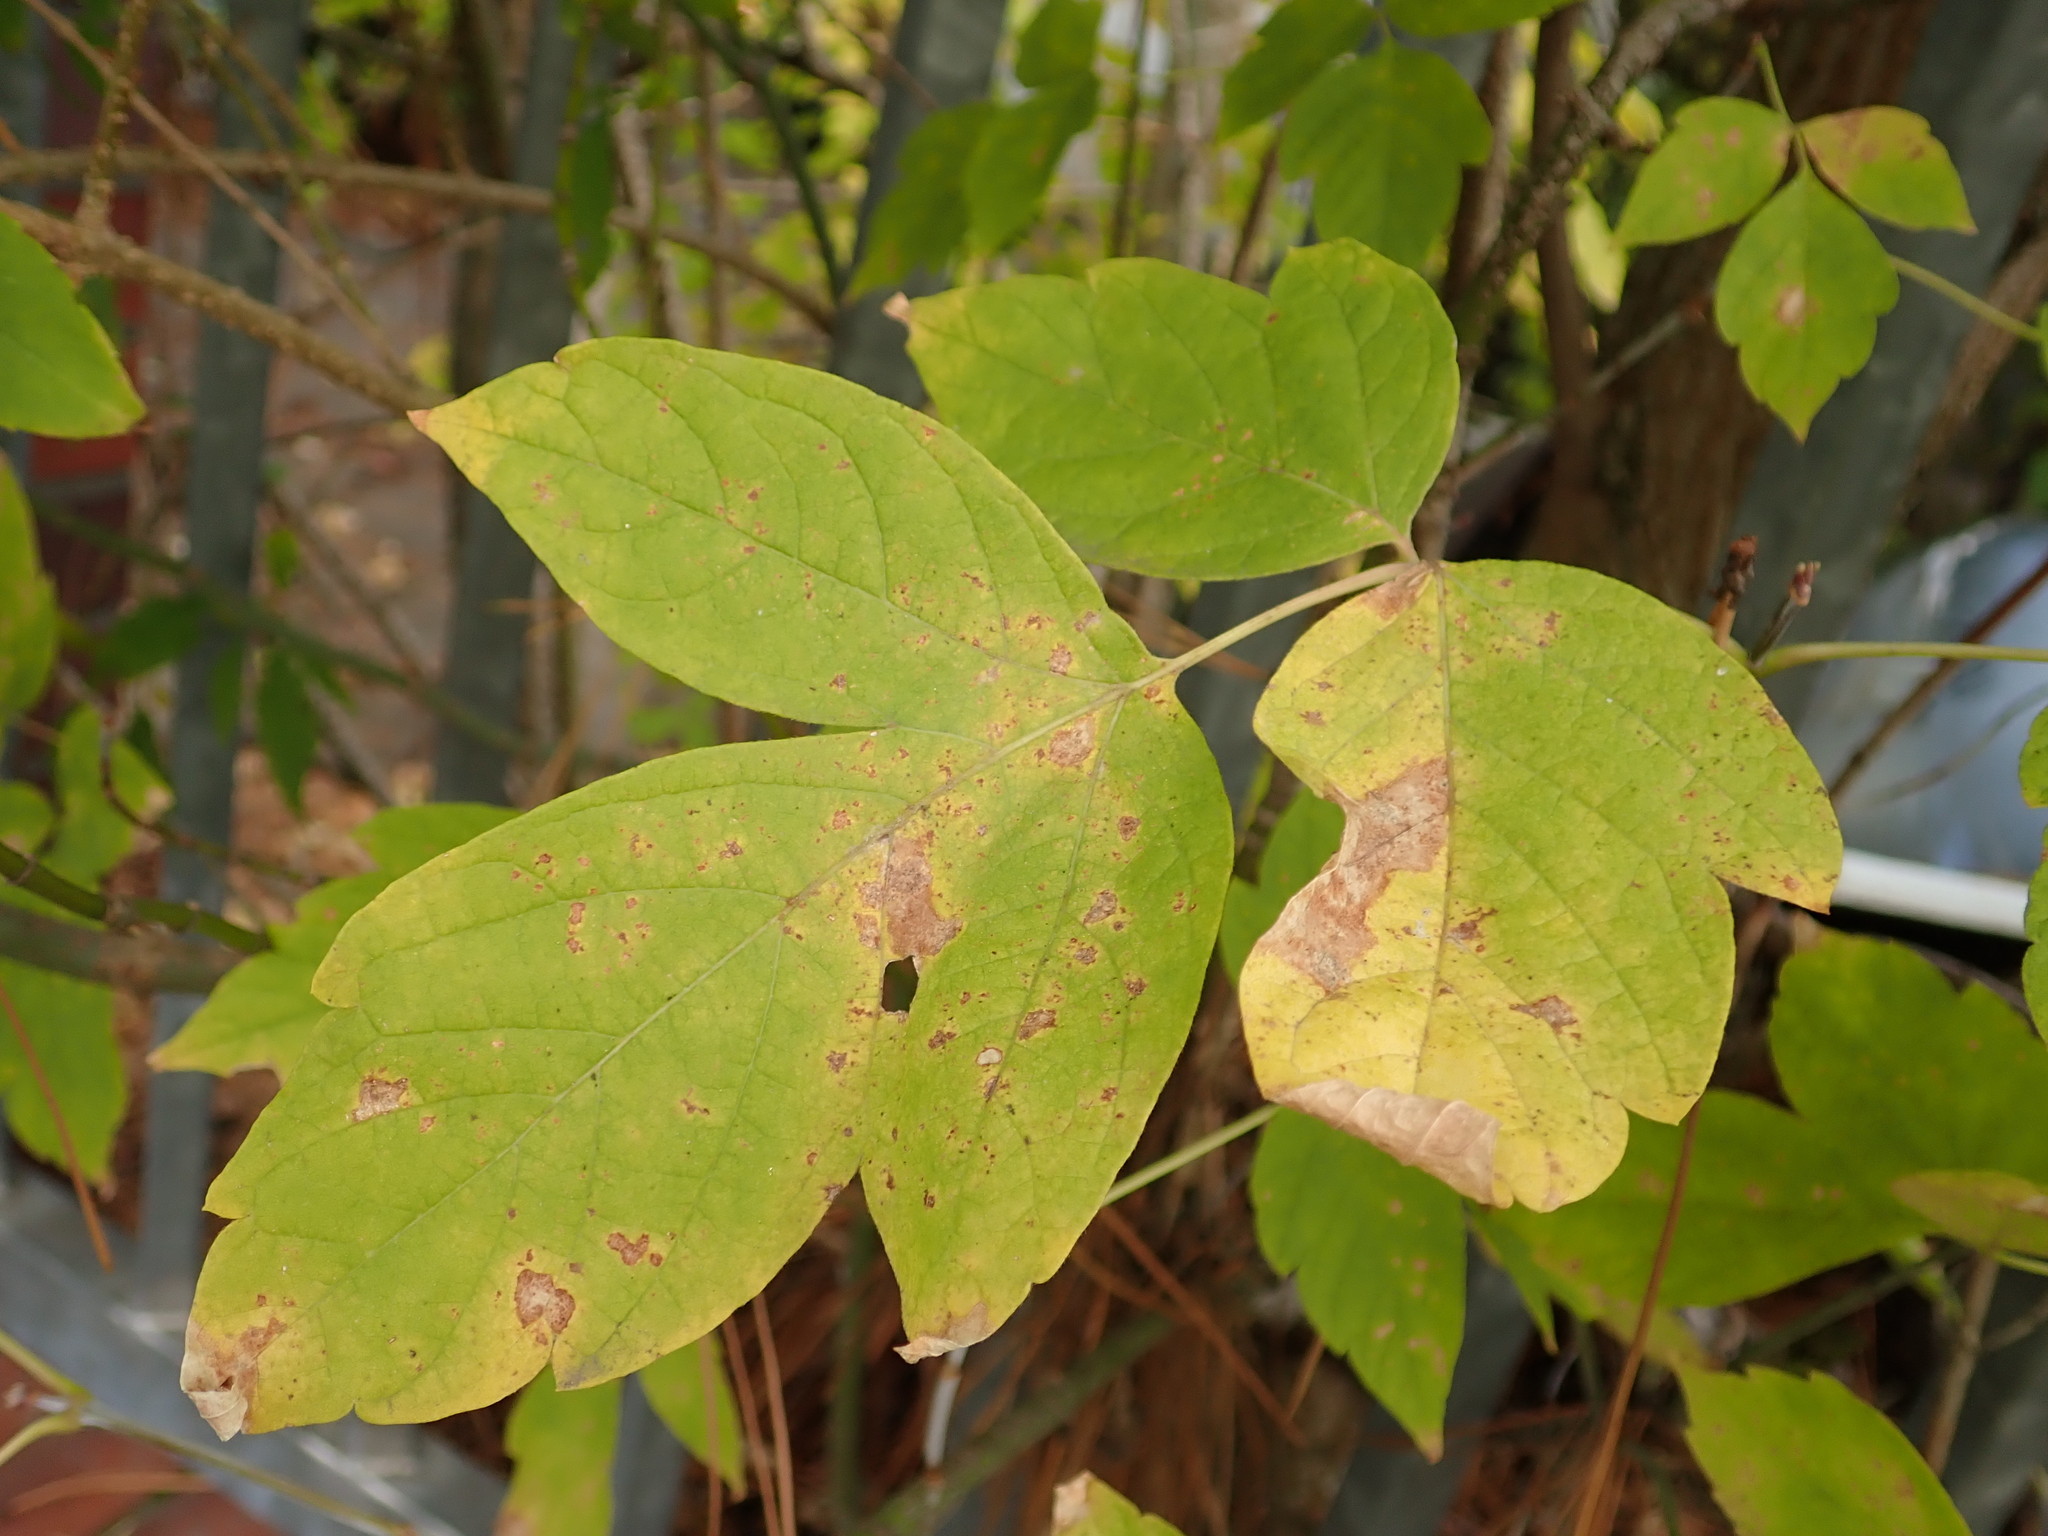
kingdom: Plantae
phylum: Tracheophyta
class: Magnoliopsida
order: Sapindales
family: Sapindaceae
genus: Acer
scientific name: Acer negundo
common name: Ashleaf maple
